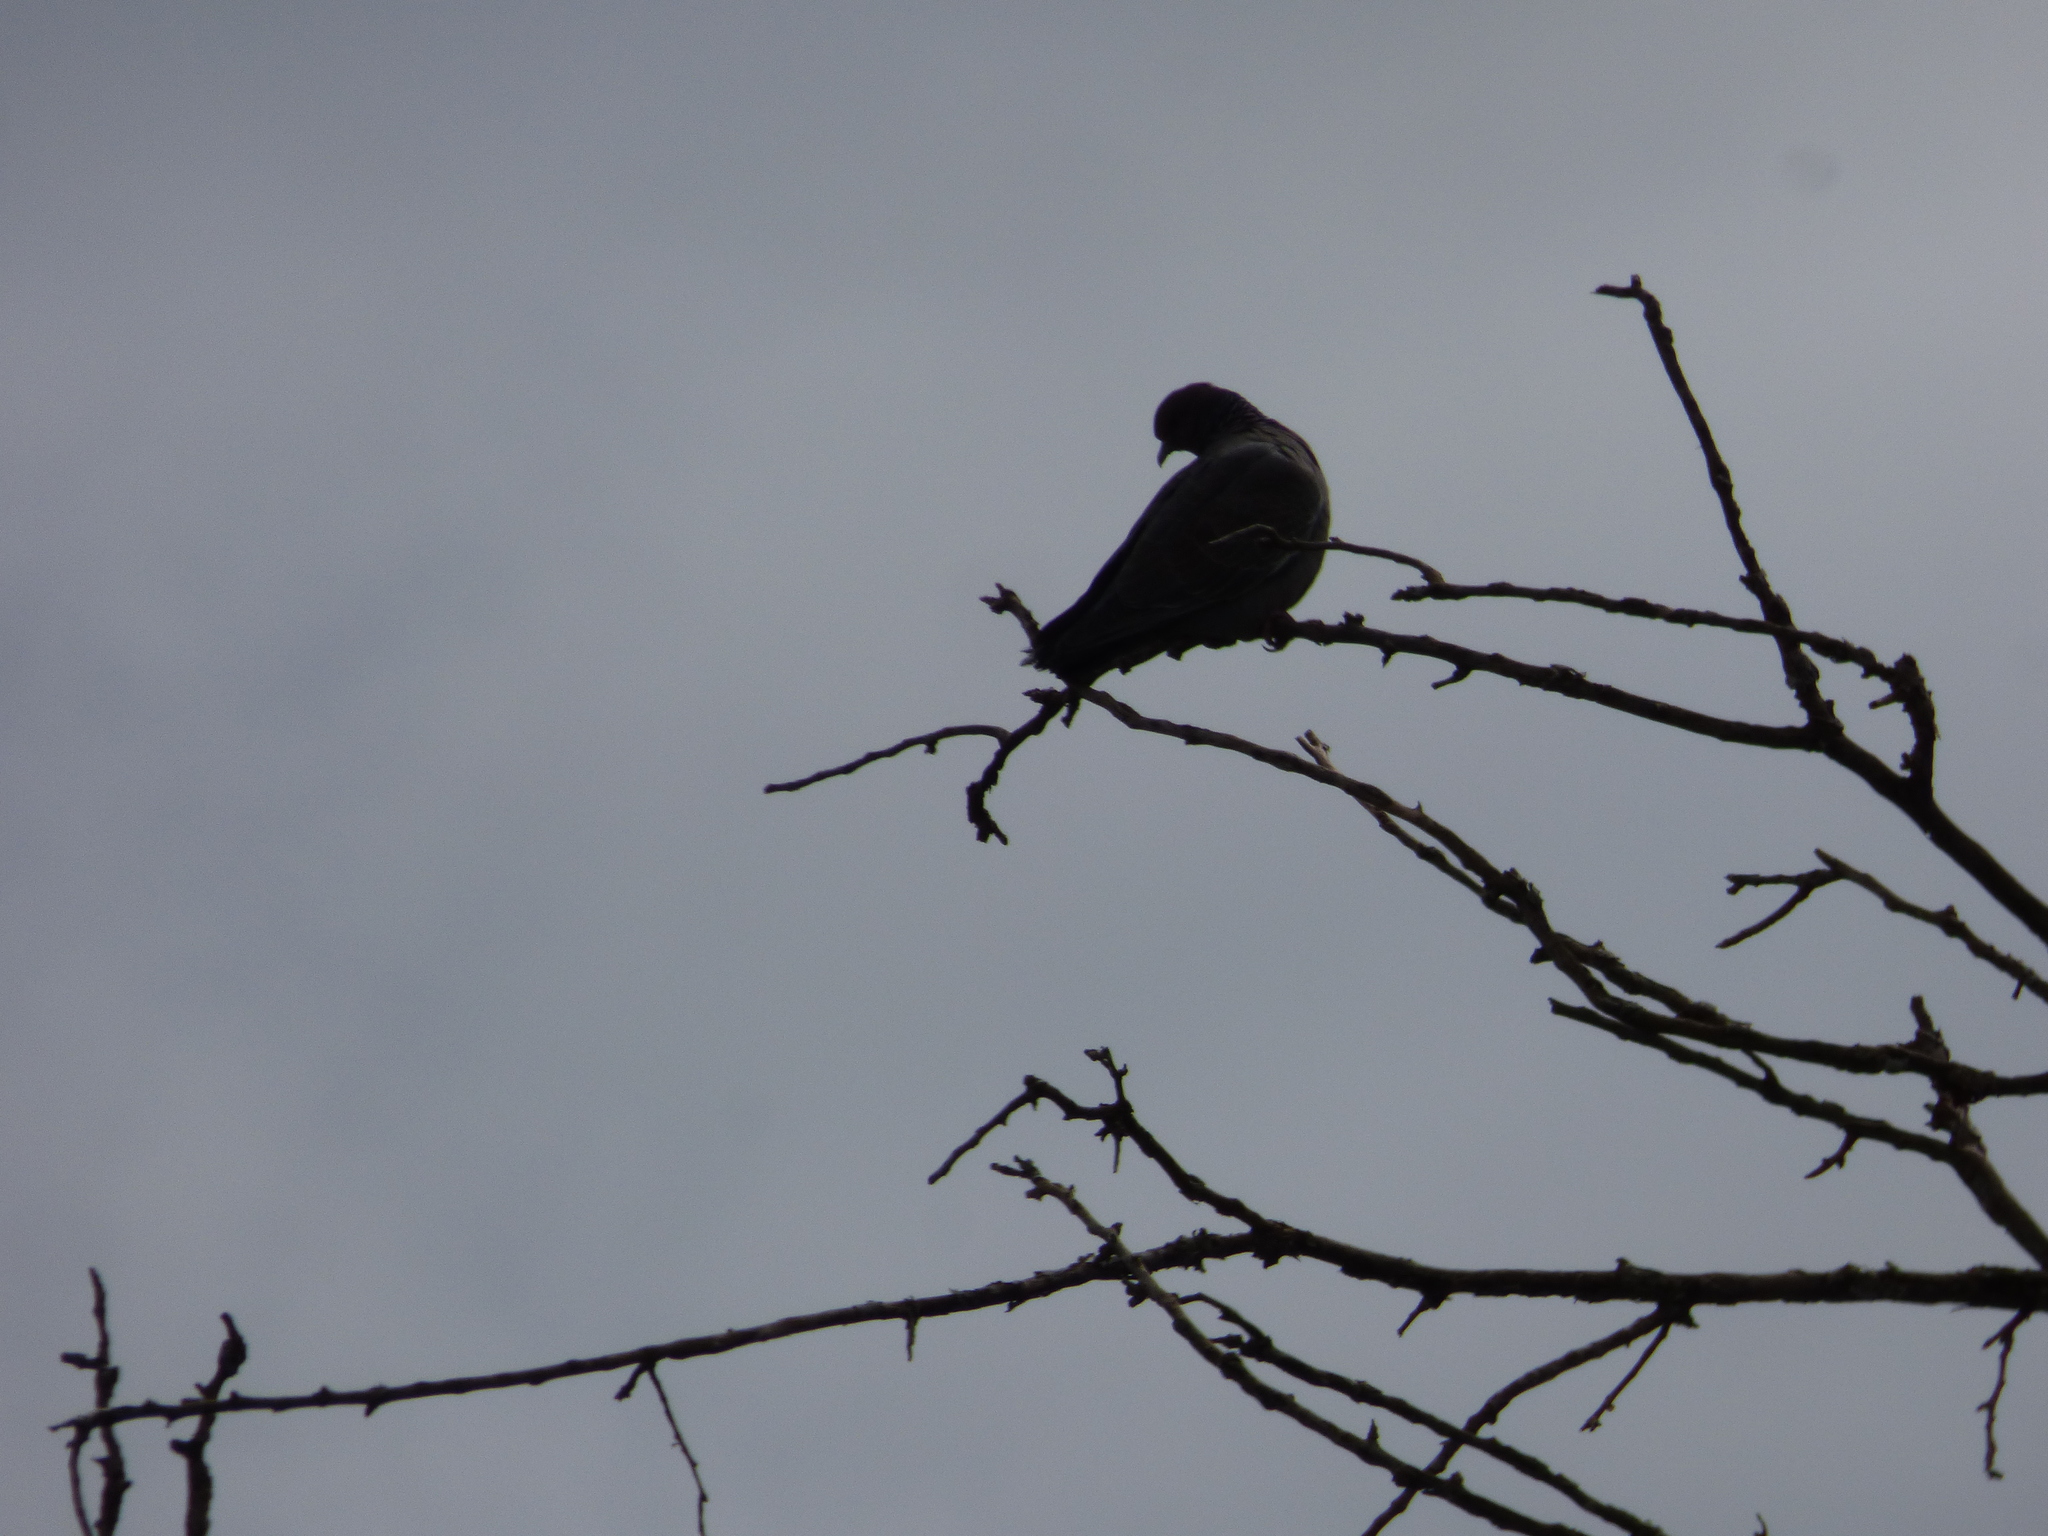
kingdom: Animalia
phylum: Chordata
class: Aves
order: Columbiformes
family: Columbidae
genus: Patagioenas
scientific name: Patagioenas picazuro
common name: Picazuro pigeon
